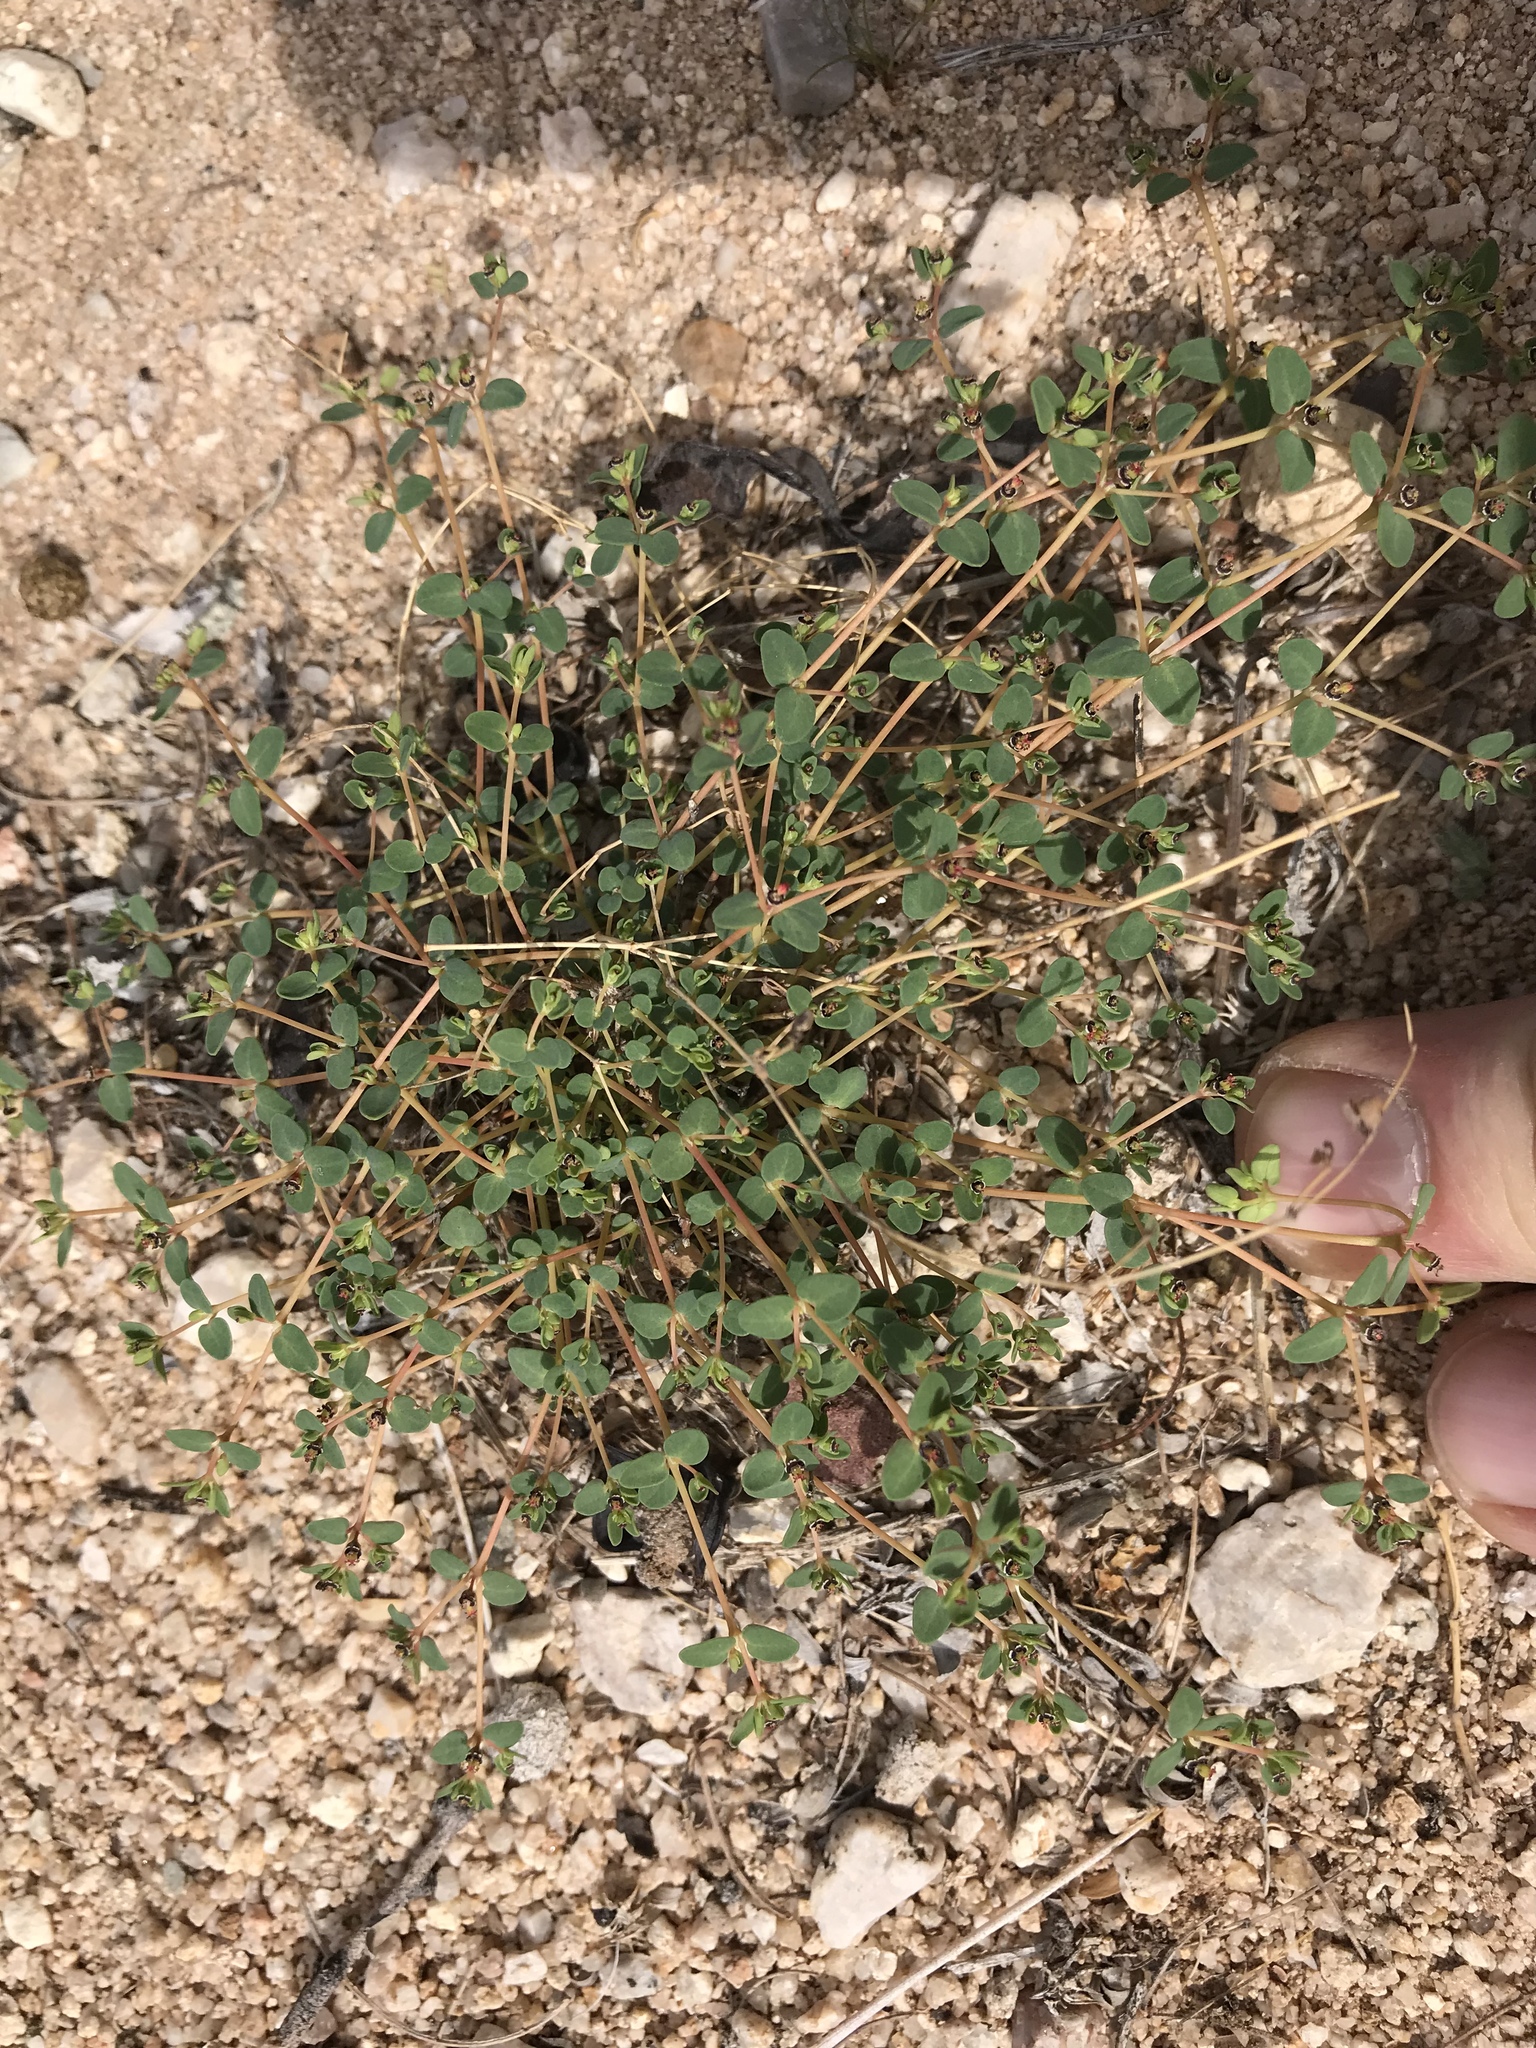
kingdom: Plantae
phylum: Tracheophyta
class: Magnoliopsida
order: Malpighiales
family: Euphorbiaceae
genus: Euphorbia
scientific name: Euphorbia polycarpa
